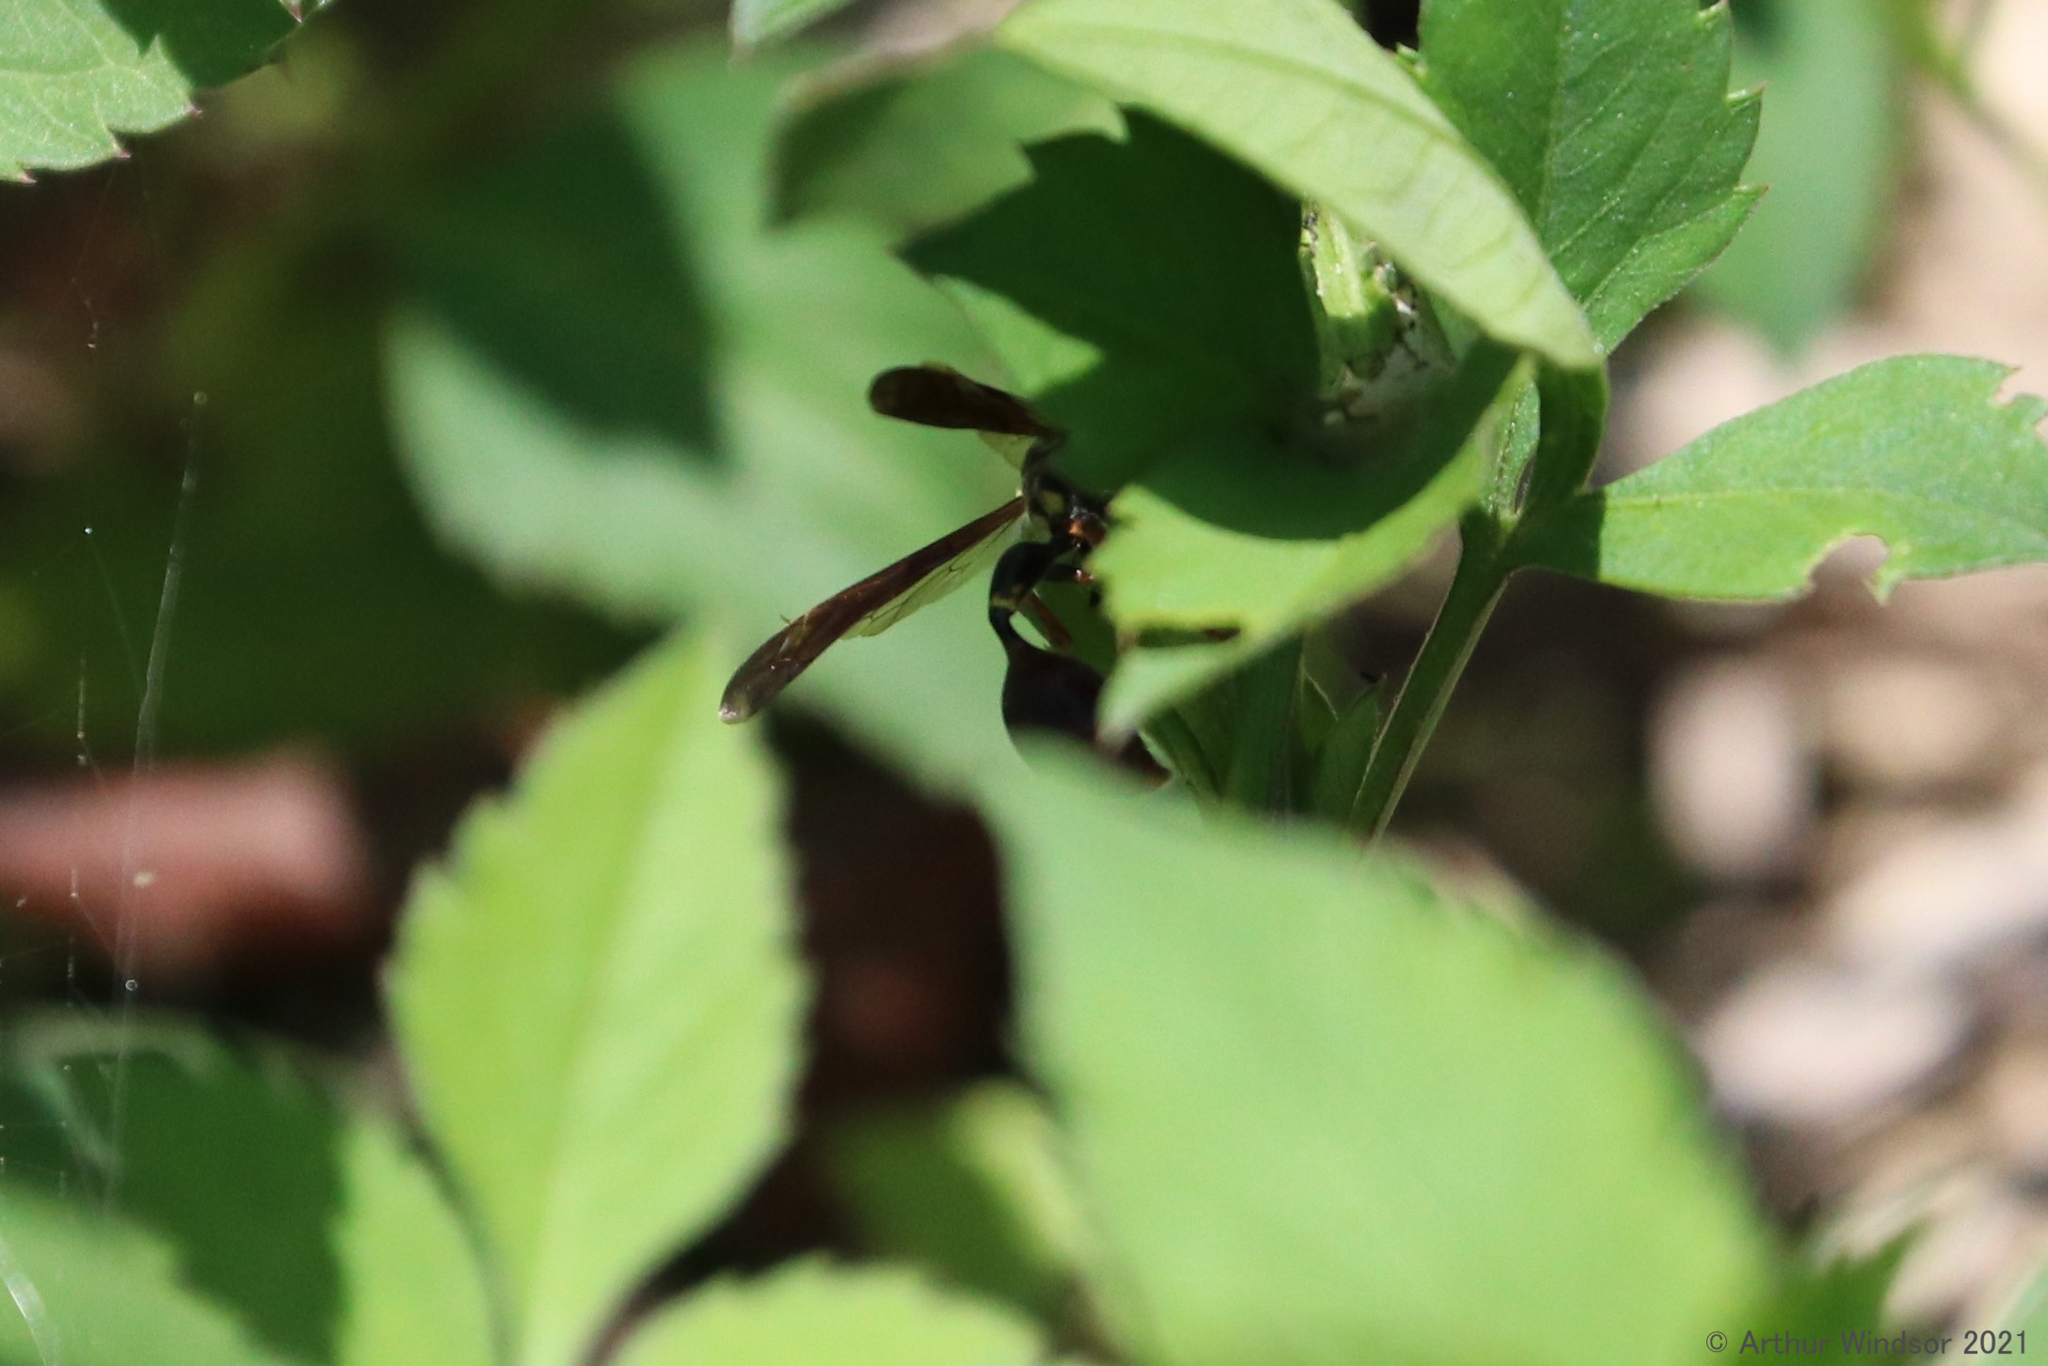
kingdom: Animalia
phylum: Arthropoda
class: Insecta
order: Hymenoptera
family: Eumenidae
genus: Zethus
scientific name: Zethus slossonae
